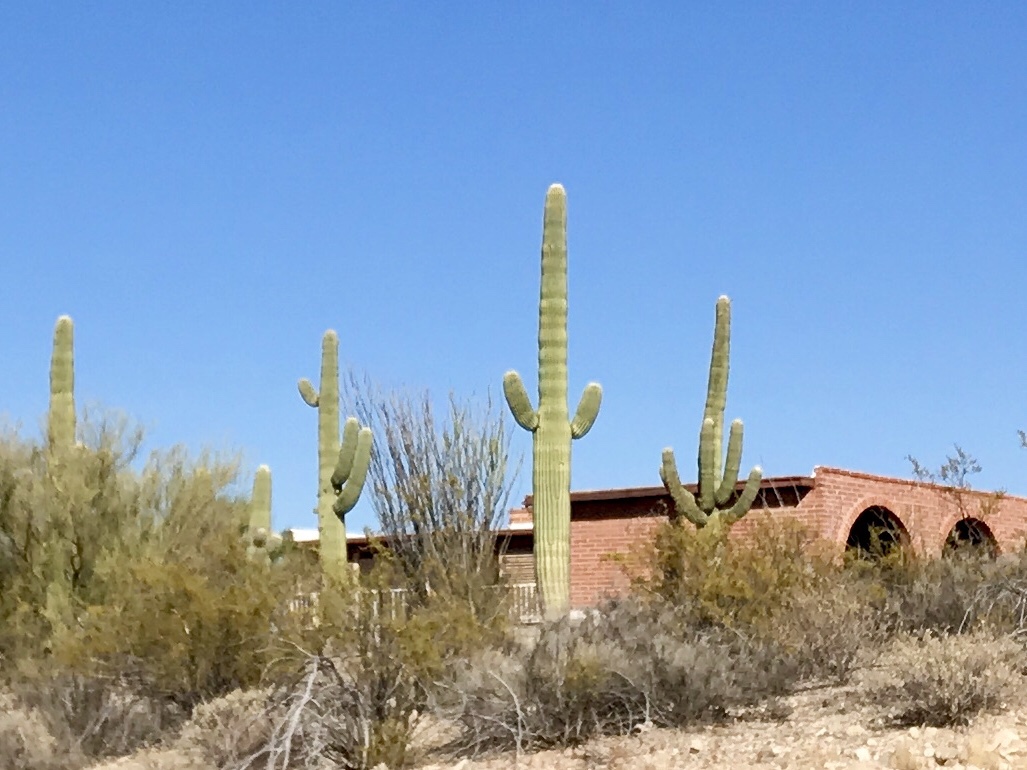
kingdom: Plantae
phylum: Tracheophyta
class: Magnoliopsida
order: Caryophyllales
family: Cactaceae
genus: Carnegiea
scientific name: Carnegiea gigantea
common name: Saguaro
